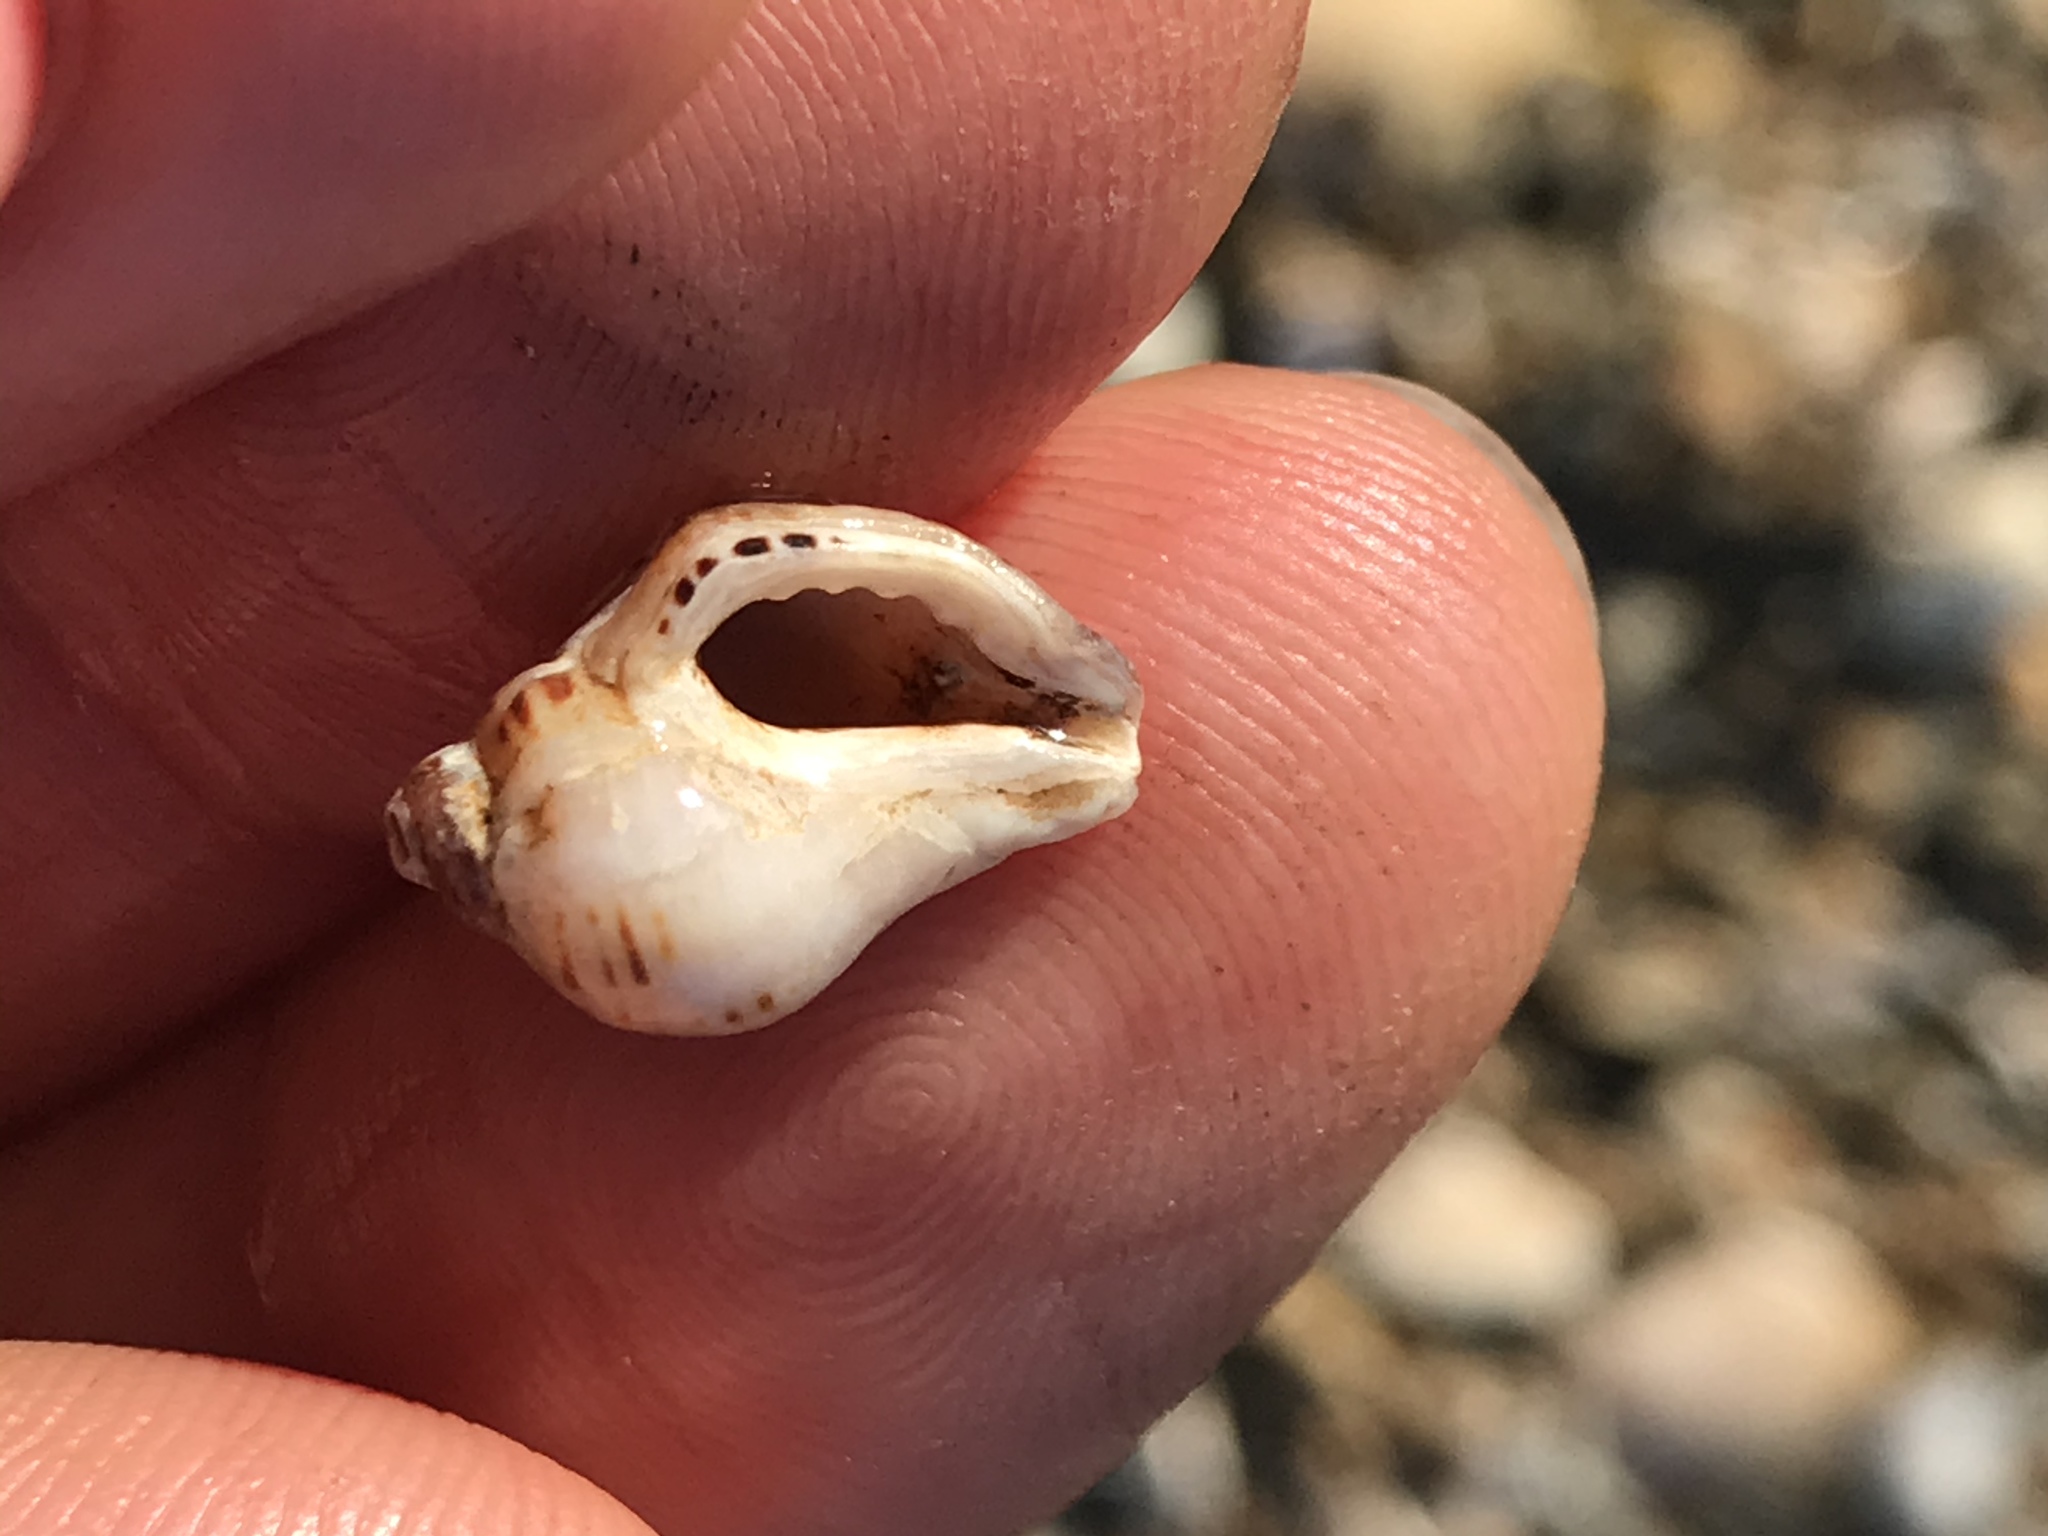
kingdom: Animalia
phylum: Mollusca
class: Gastropoda
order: Neogastropoda
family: Muricidae
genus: Acanthinucella
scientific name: Acanthinucella spirata
